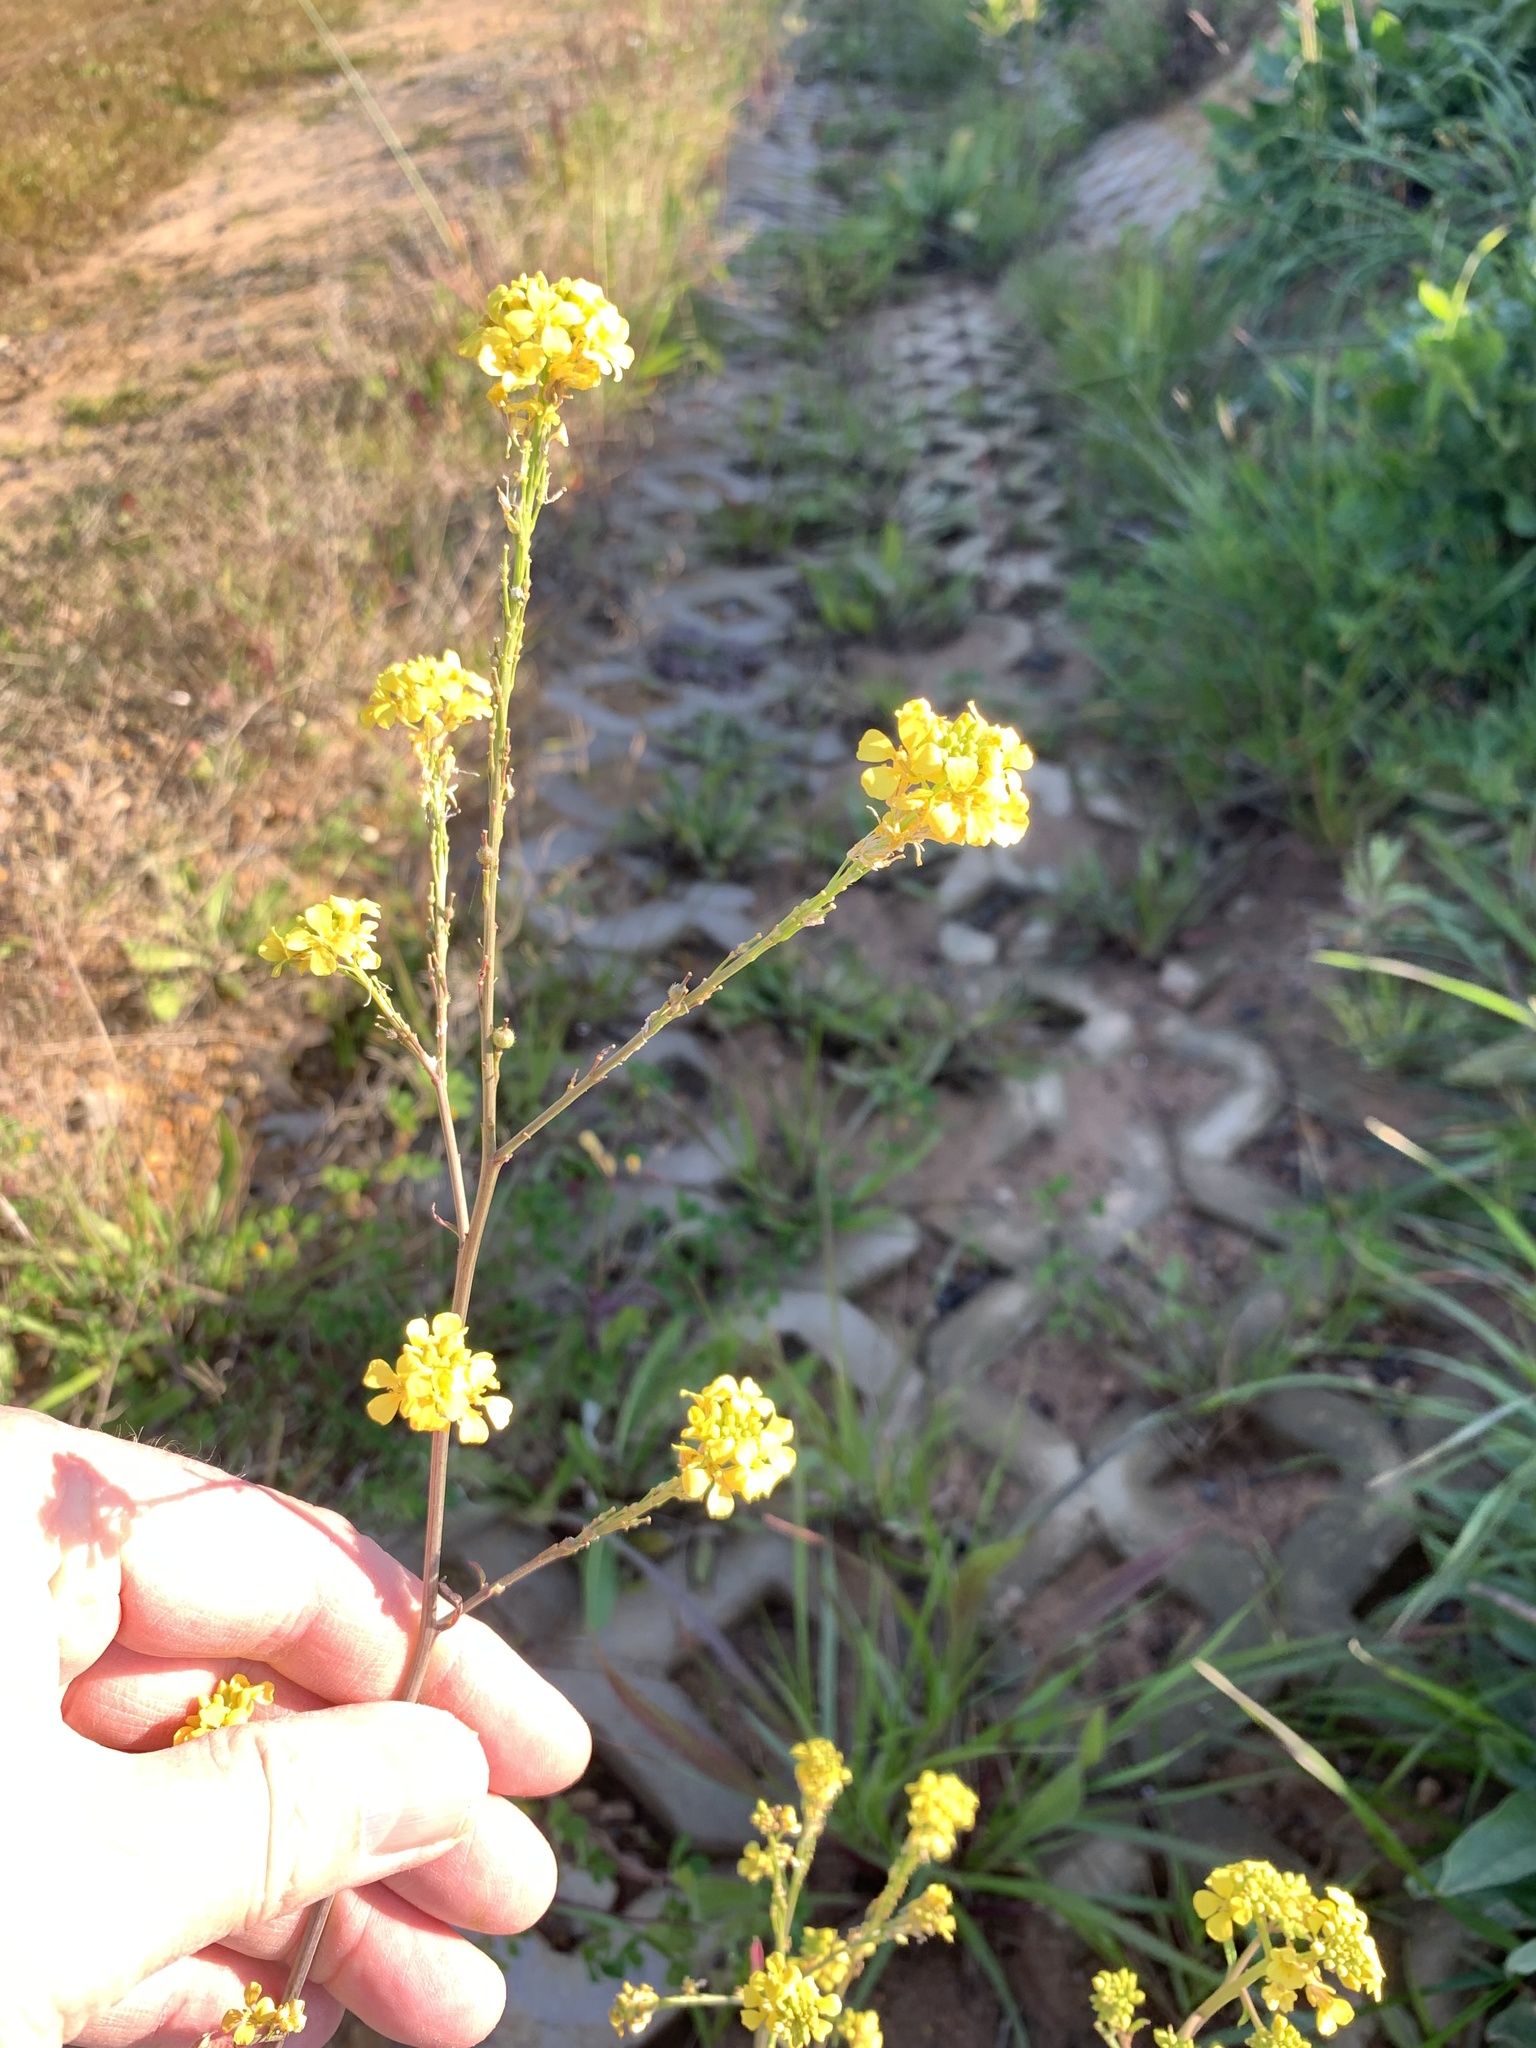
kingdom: Plantae
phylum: Tracheophyta
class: Magnoliopsida
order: Brassicales
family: Brassicaceae
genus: Rapistrum
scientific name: Rapistrum rugosum
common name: Annual bastardcabbage
